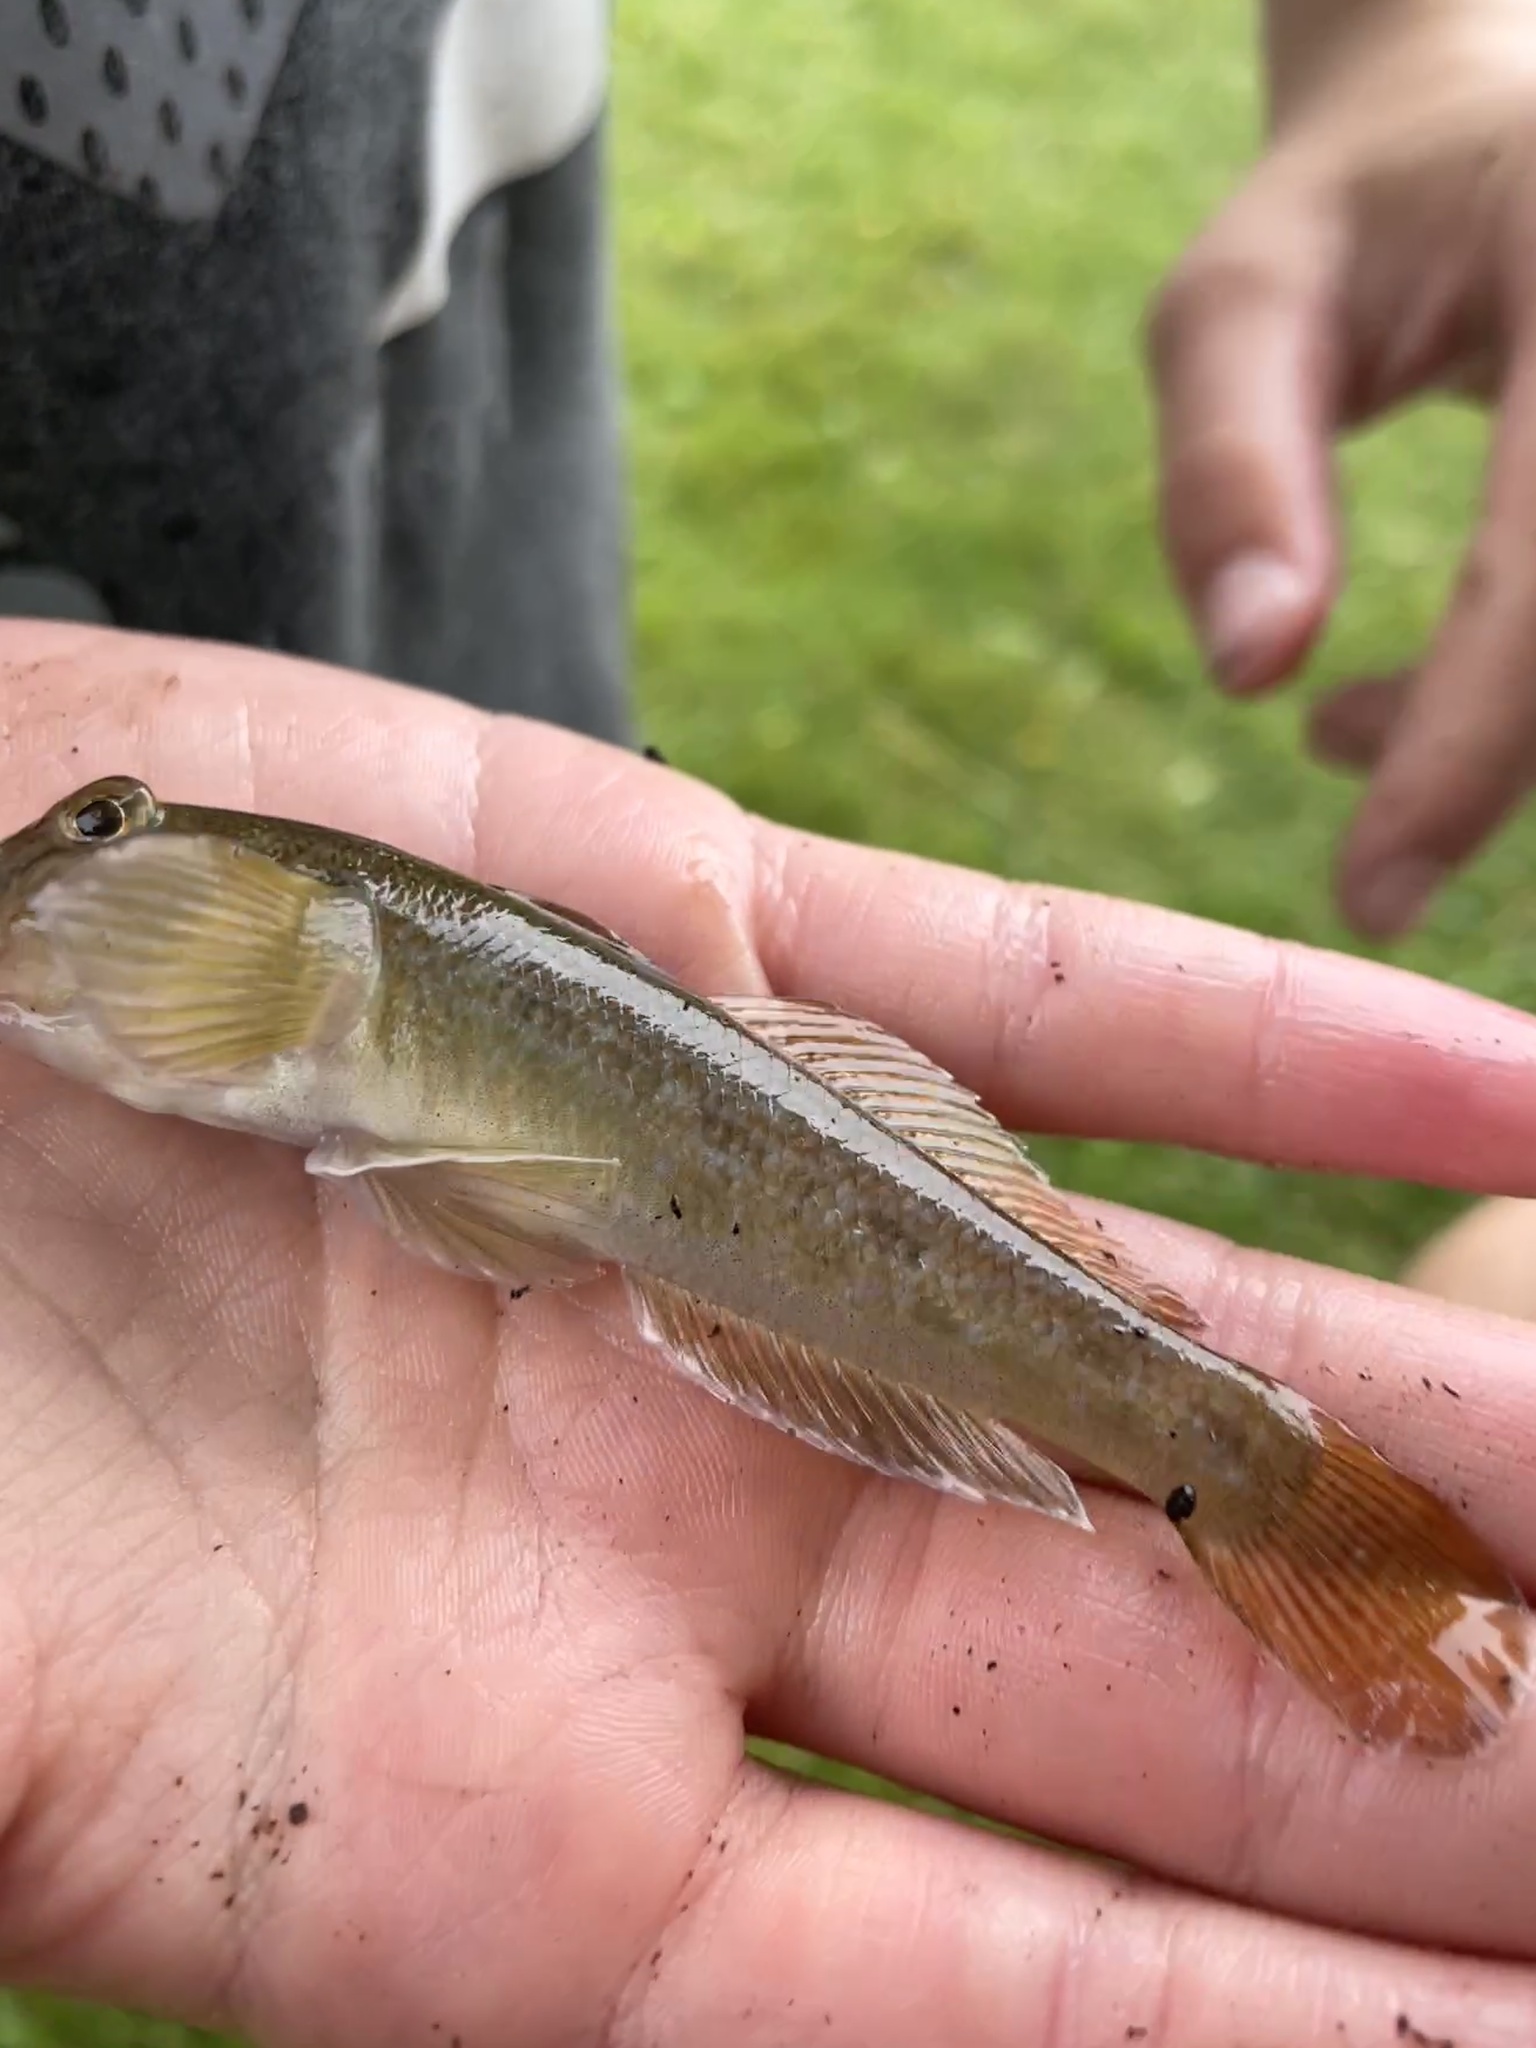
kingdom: Animalia
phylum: Chordata
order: Perciformes
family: Gobiidae
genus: Neogobius
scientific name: Neogobius melanostomus
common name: Round goby
